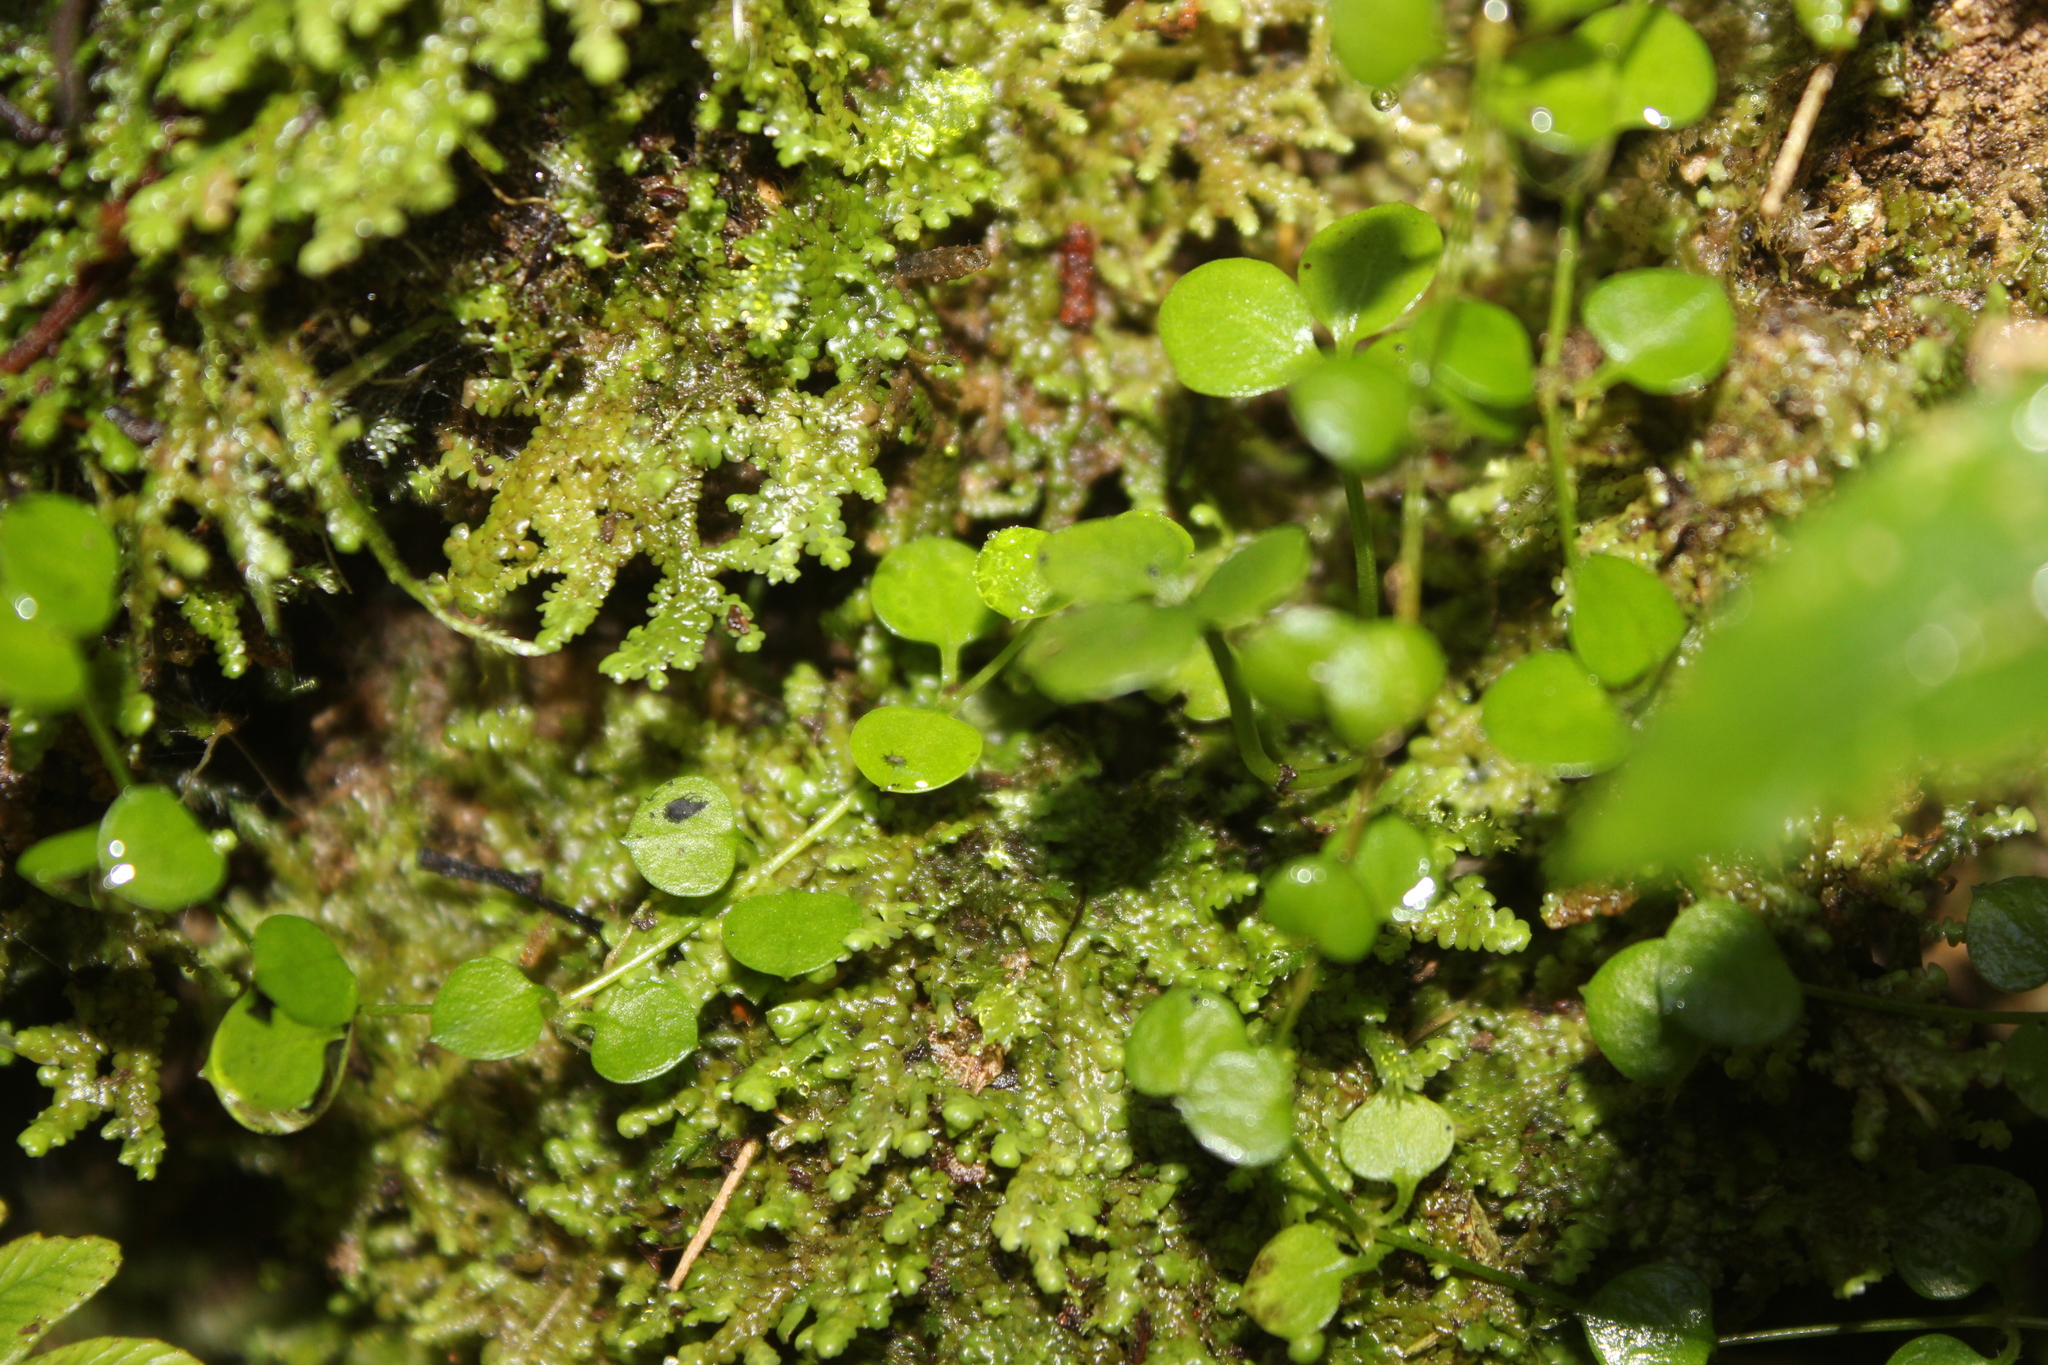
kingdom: Plantae
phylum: Tracheophyta
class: Magnoliopsida
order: Caryophyllales
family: Caryophyllaceae
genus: Stellaria
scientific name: Stellaria parviflora
